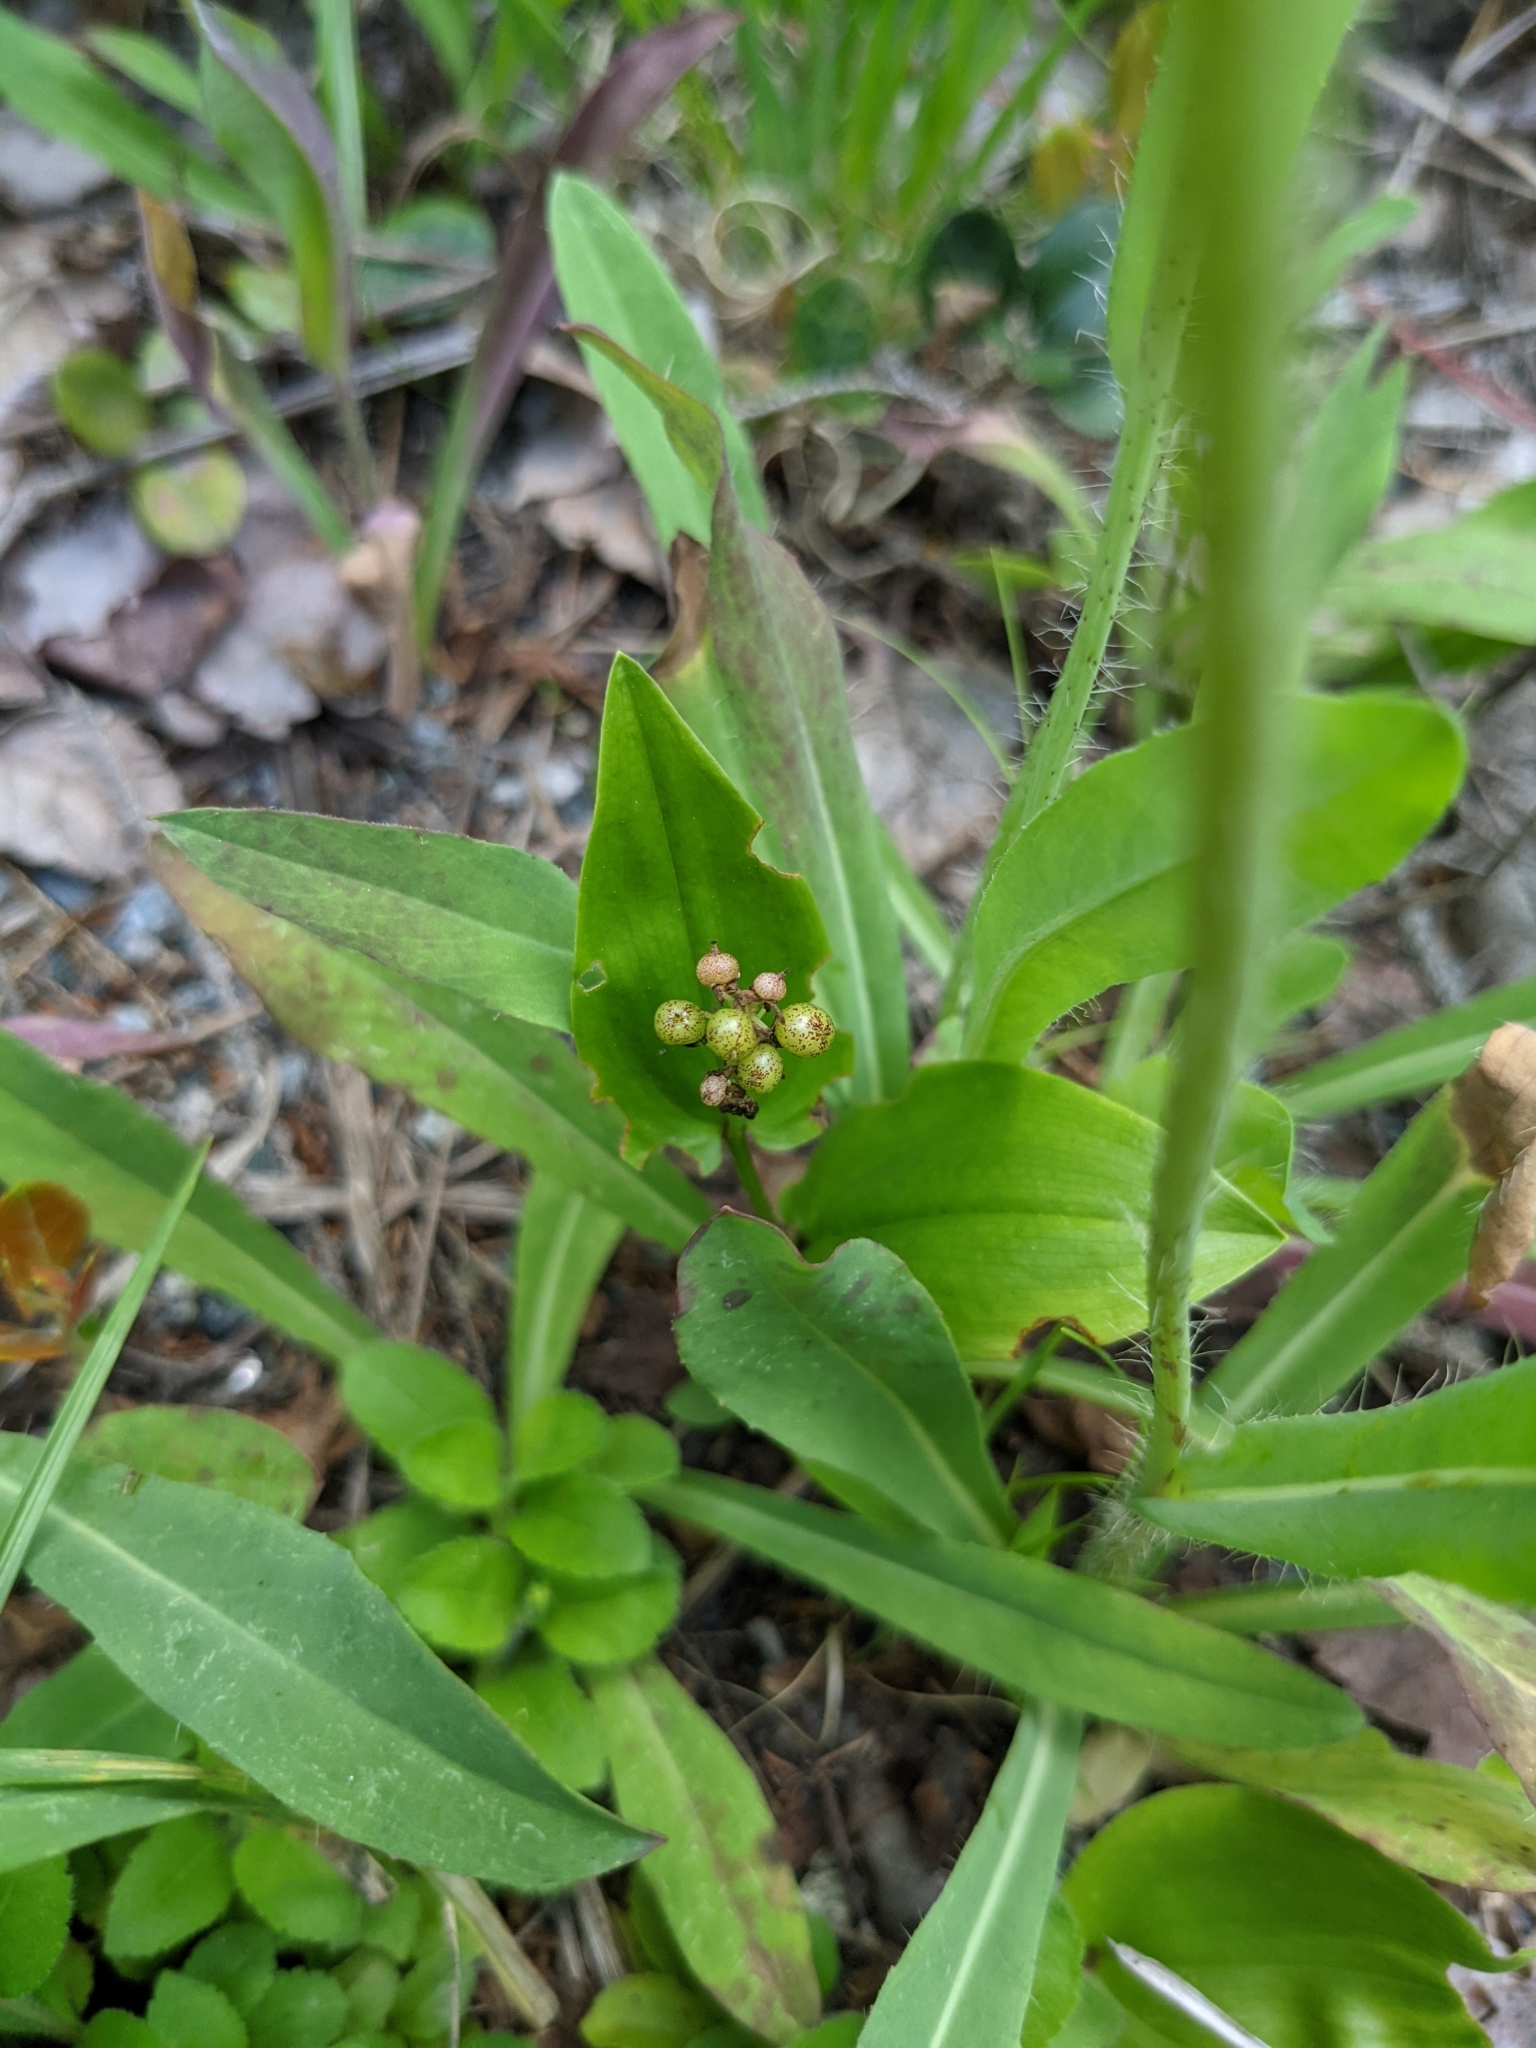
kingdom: Plantae
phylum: Tracheophyta
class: Liliopsida
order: Asparagales
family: Asparagaceae
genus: Maianthemum
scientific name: Maianthemum canadense
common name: False lily-of-the-valley
